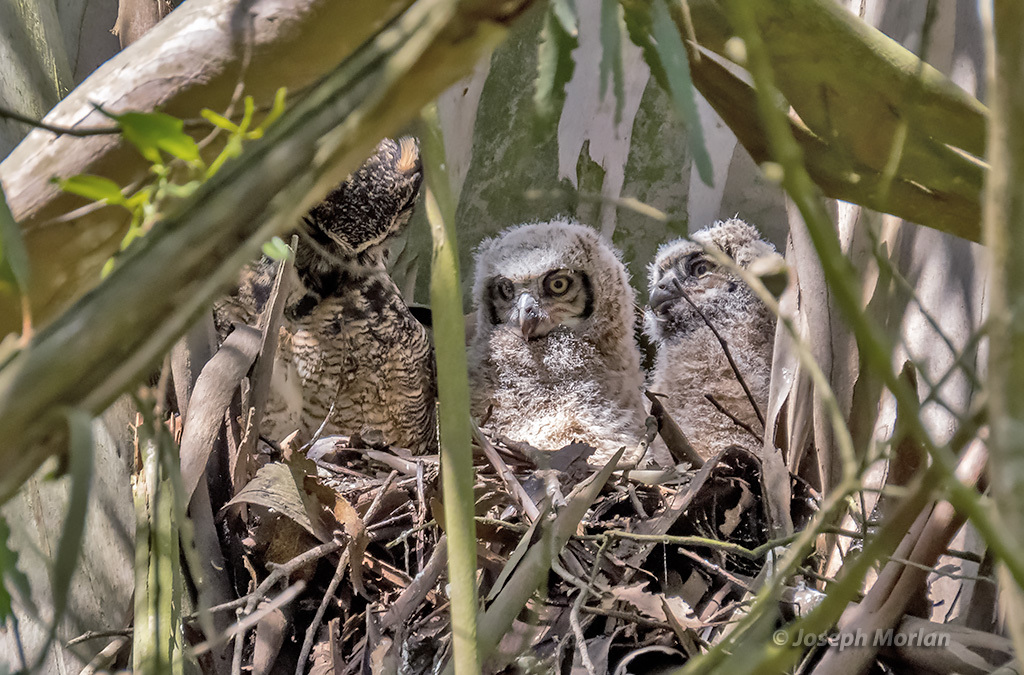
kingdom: Animalia
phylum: Chordata
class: Aves
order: Strigiformes
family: Strigidae
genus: Bubo
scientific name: Bubo virginianus
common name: Great horned owl
